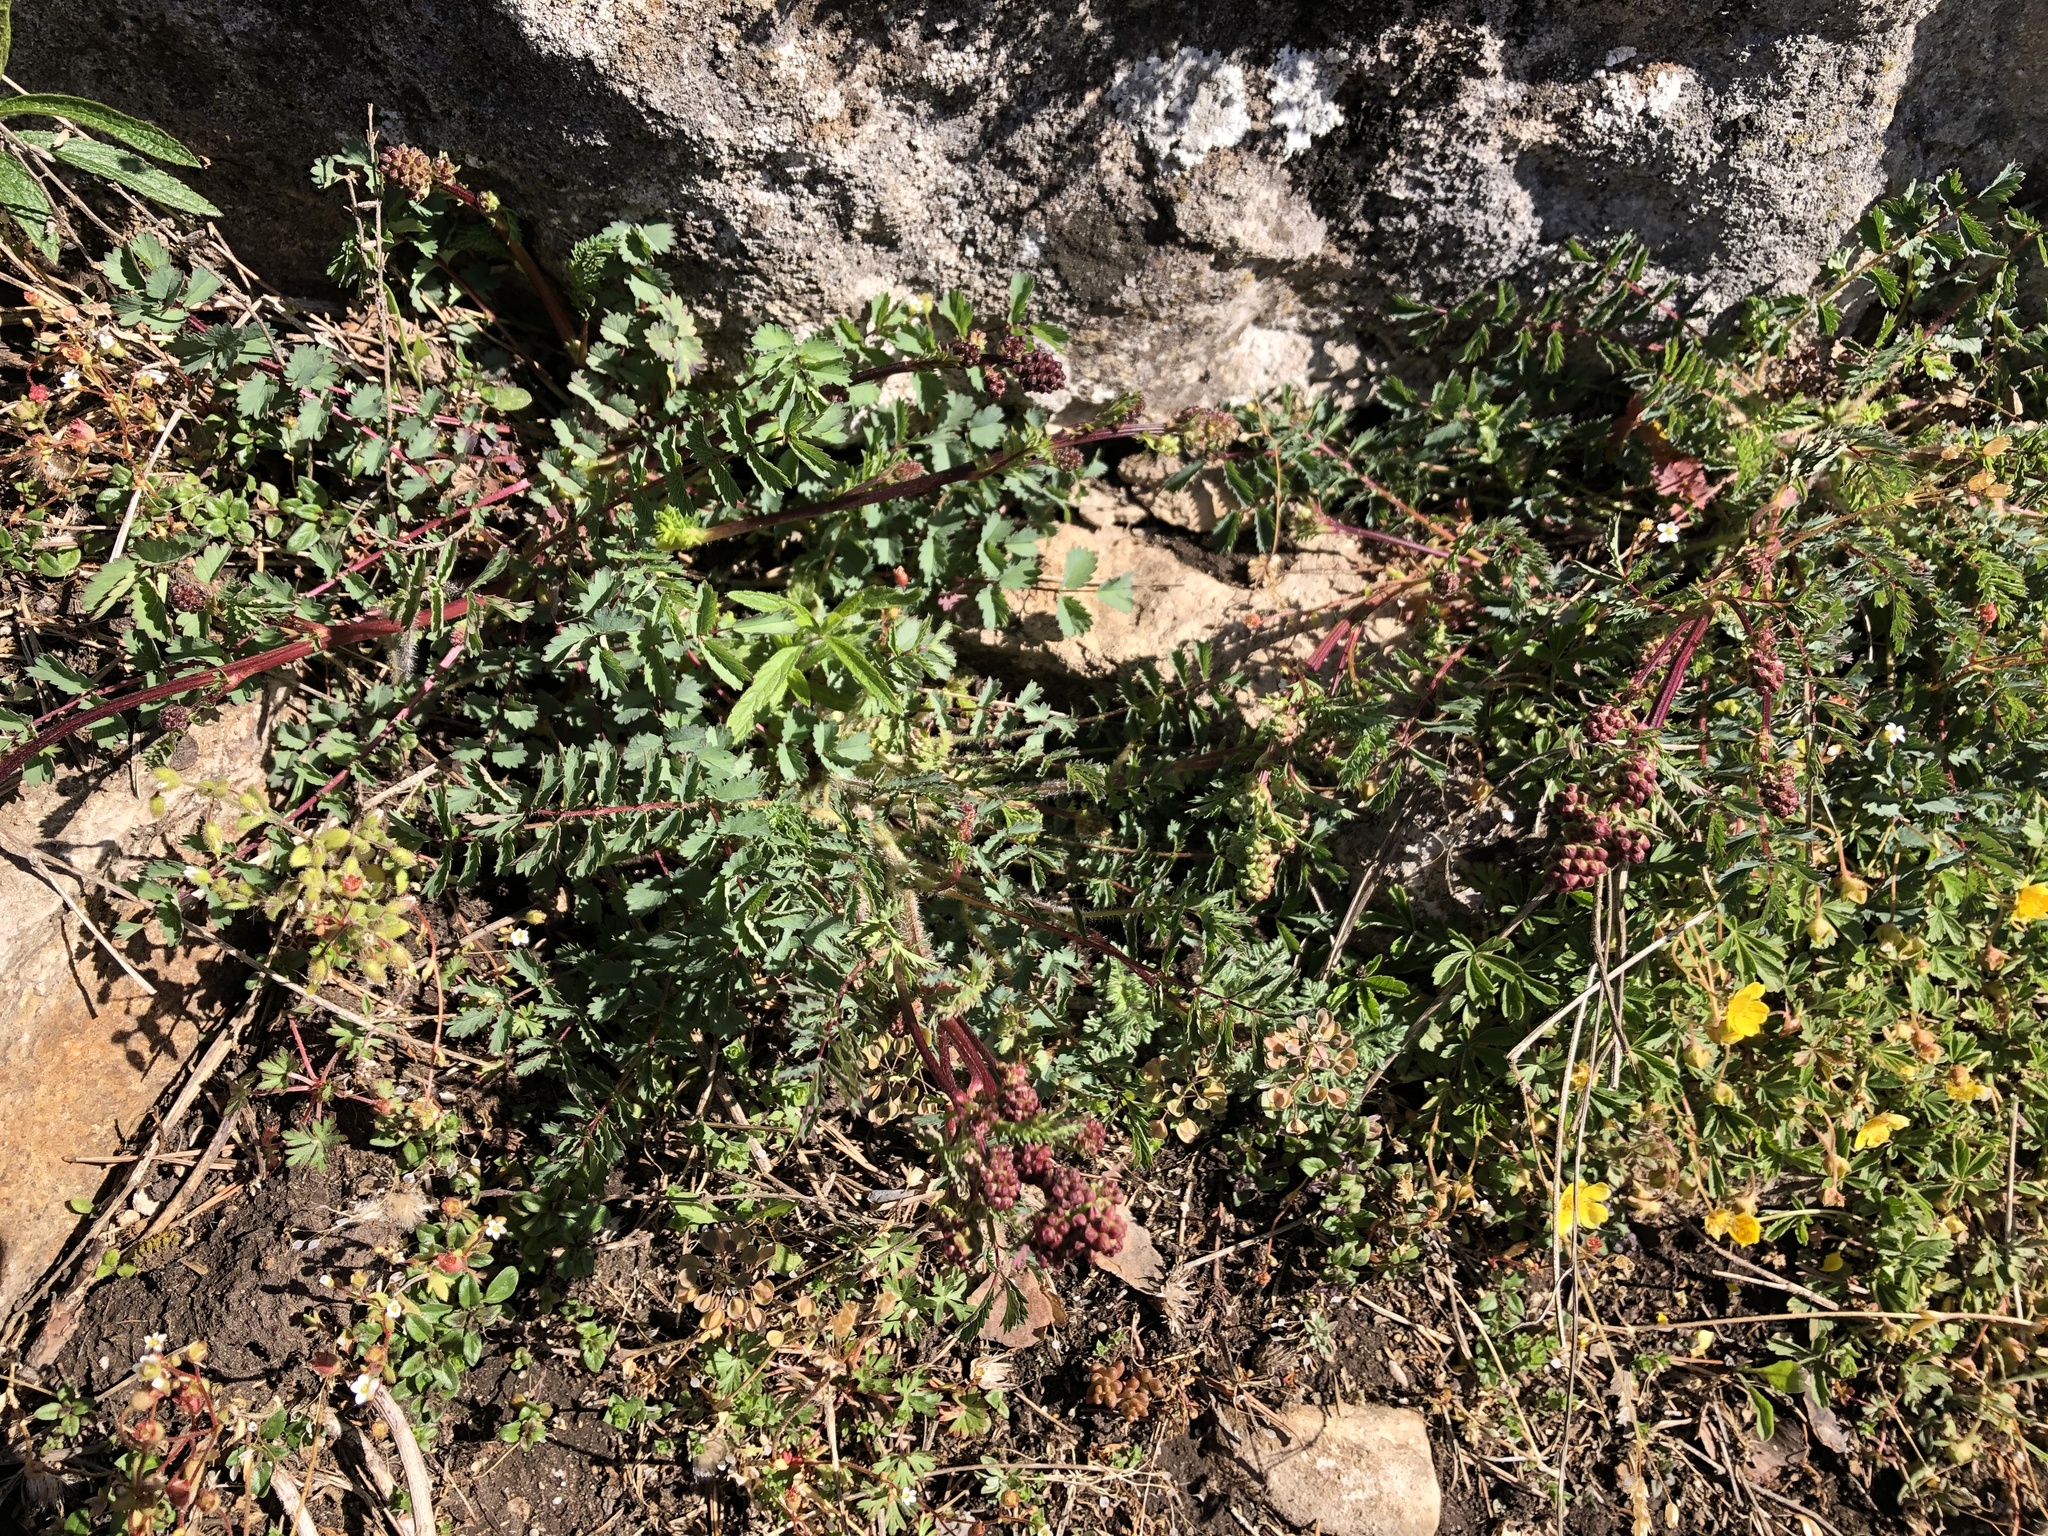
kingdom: Plantae
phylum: Tracheophyta
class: Magnoliopsida
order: Rosales
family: Rosaceae
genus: Poterium
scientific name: Poterium sanguisorba
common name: Salad burnet
